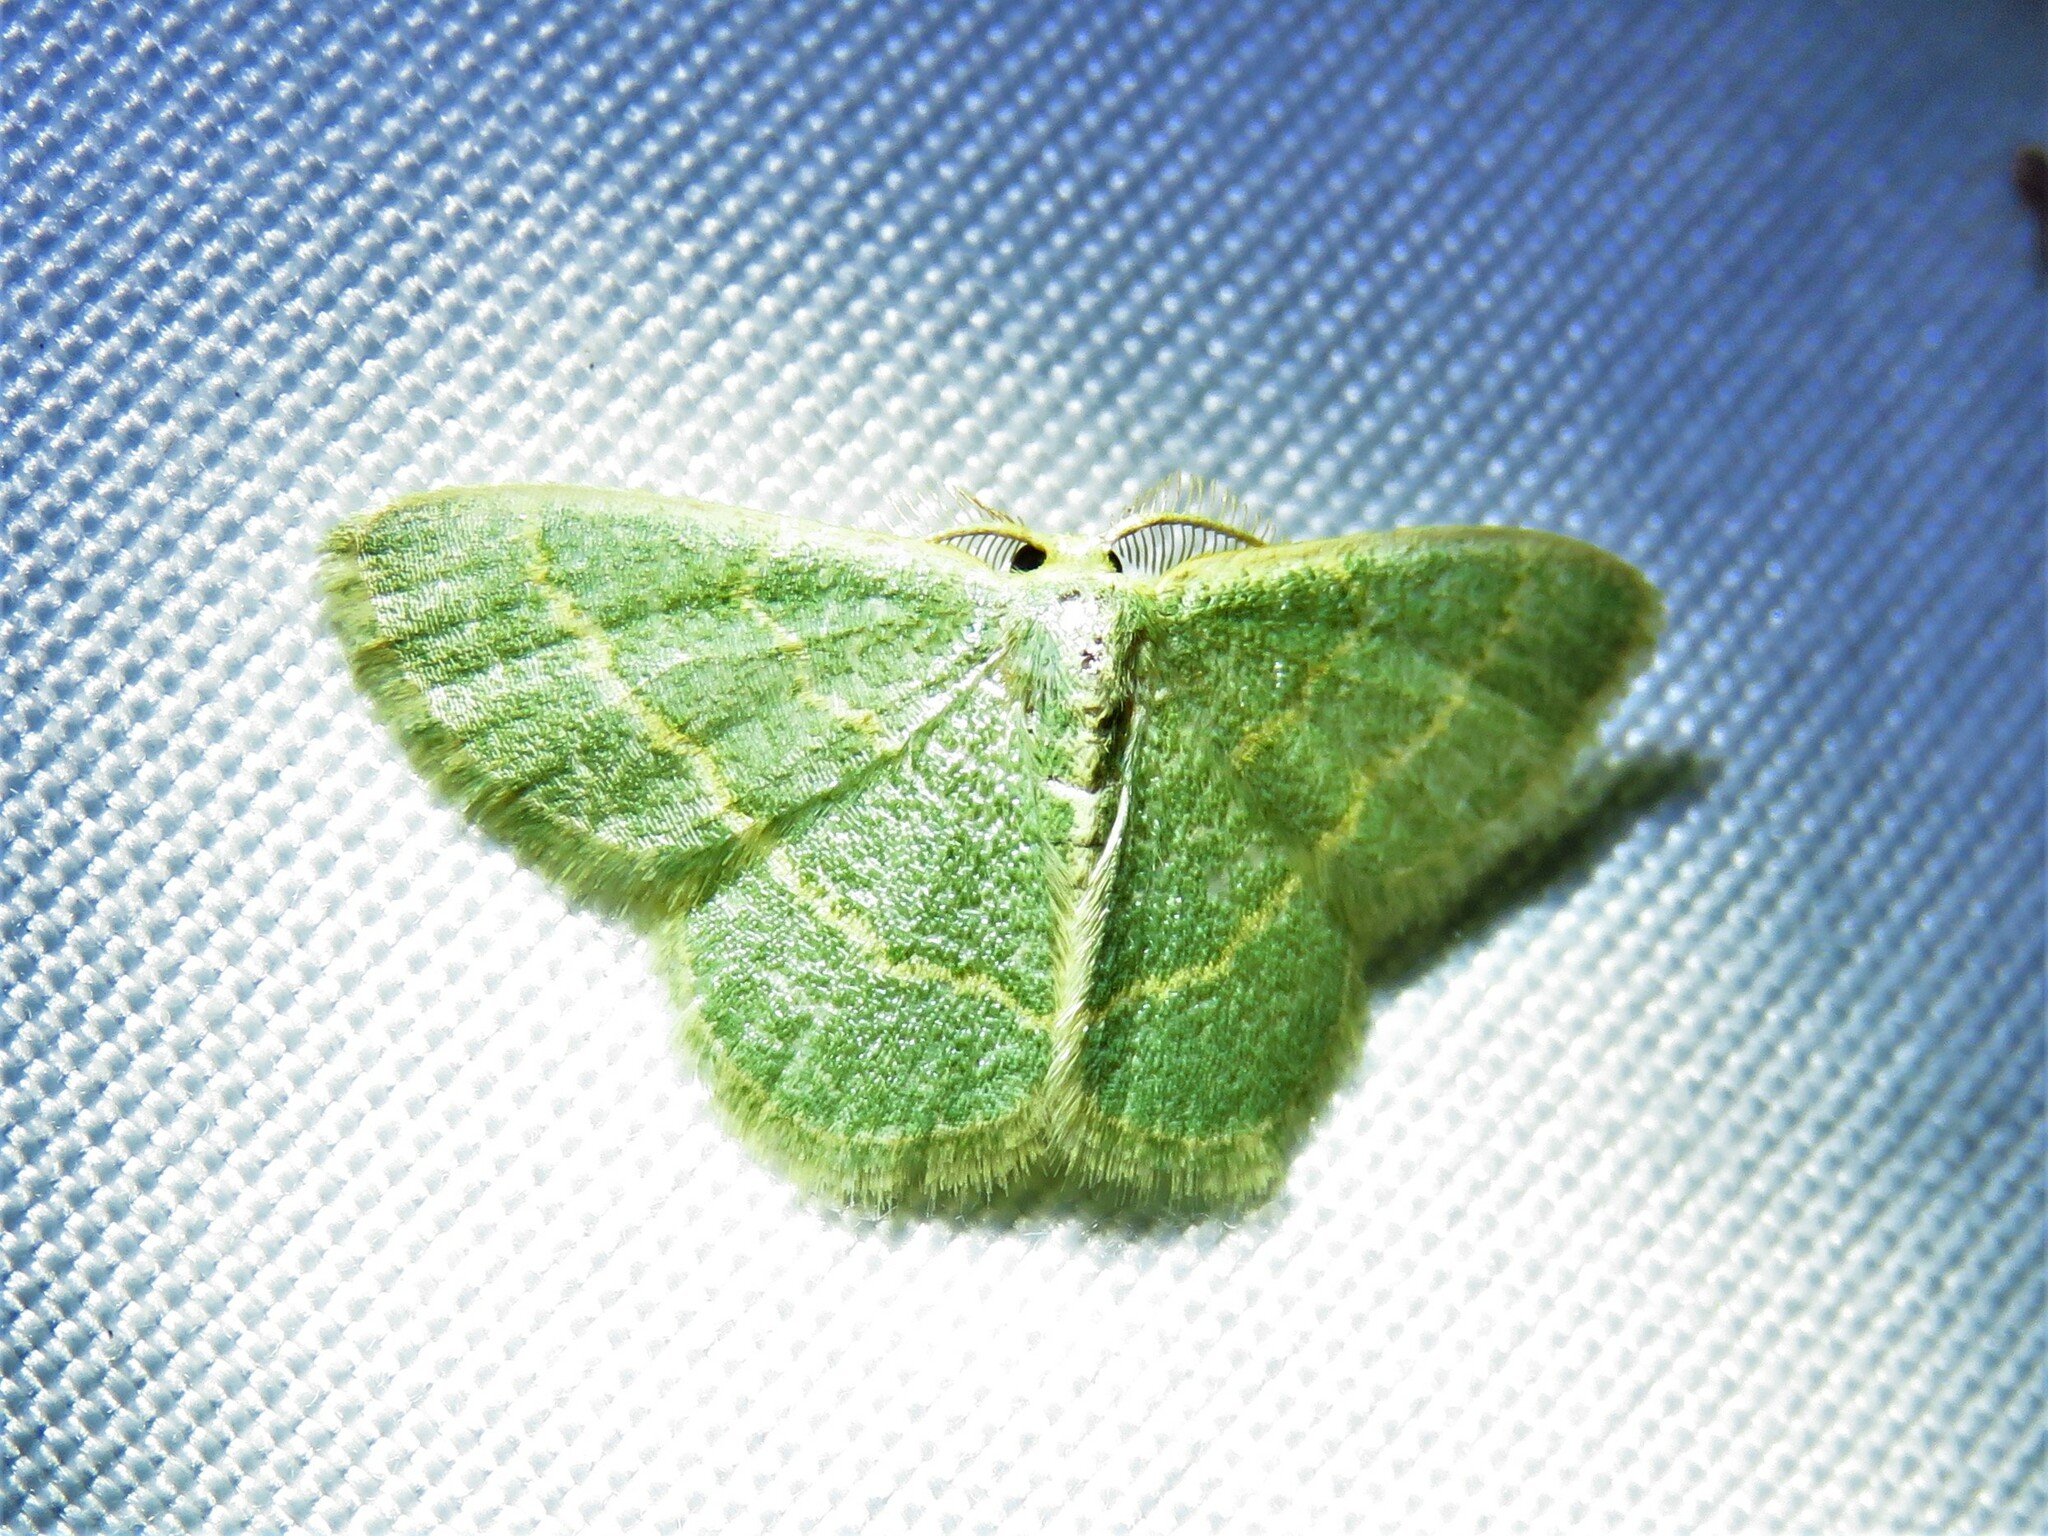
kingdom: Animalia
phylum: Arthropoda
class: Insecta
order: Lepidoptera
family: Geometridae
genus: Chlorochlamys
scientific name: Chlorochlamys chloroleucaria
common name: Blackberry looper
